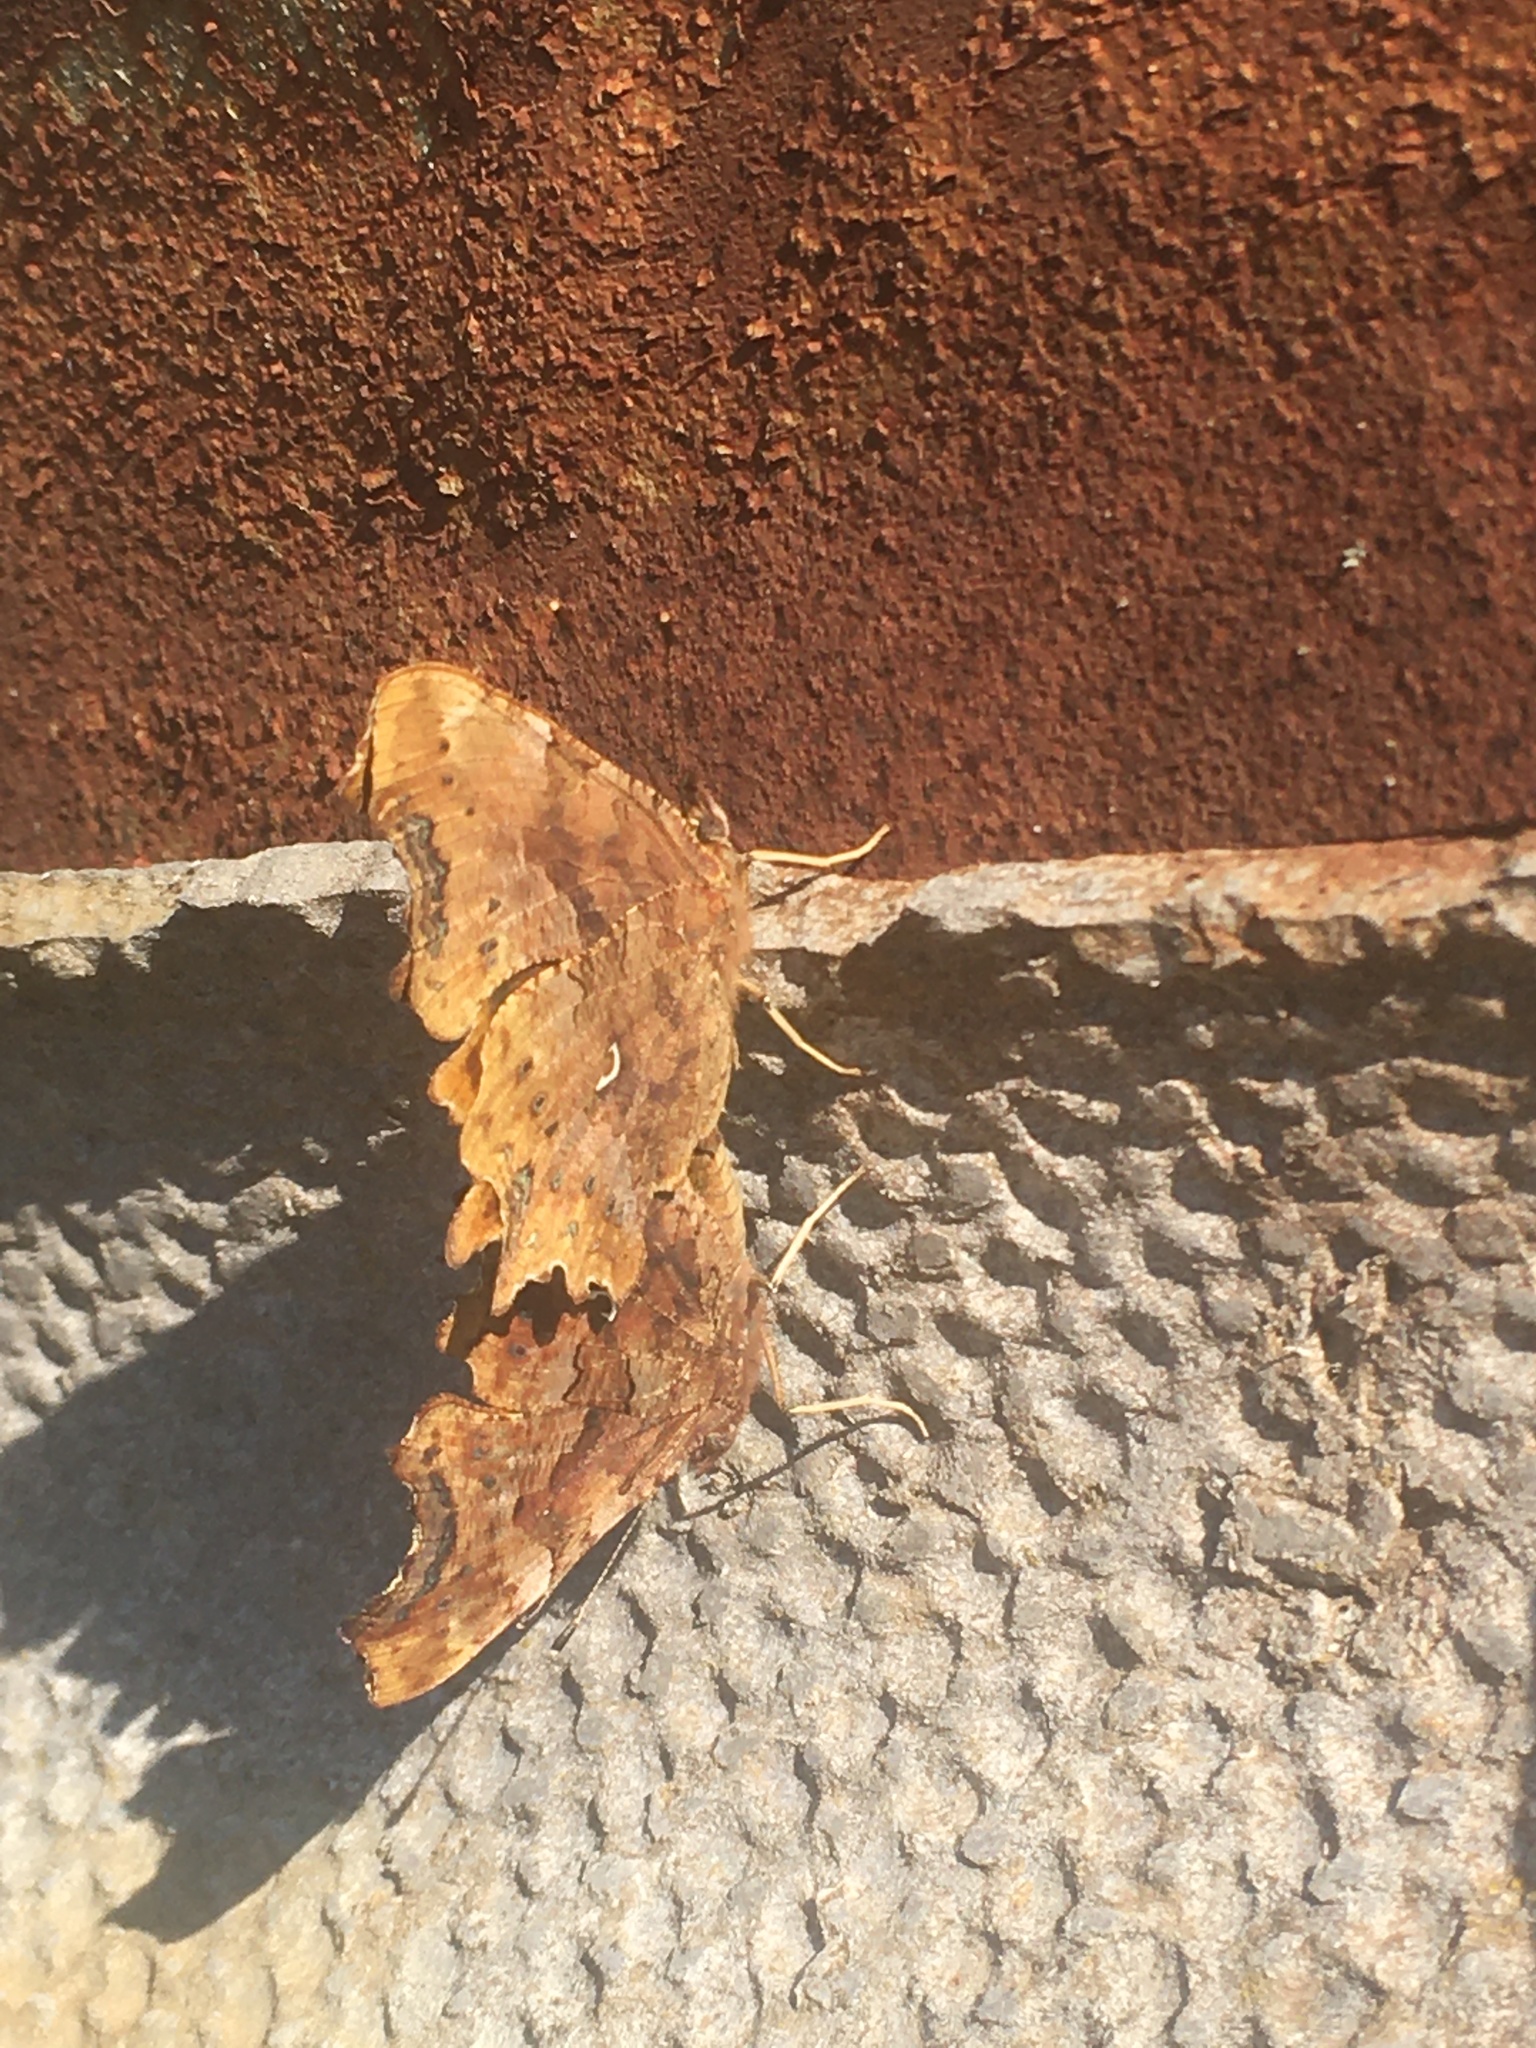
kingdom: Animalia
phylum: Arthropoda
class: Insecta
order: Lepidoptera
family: Nymphalidae
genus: Polygonia
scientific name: Polygonia c-album
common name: Comma
